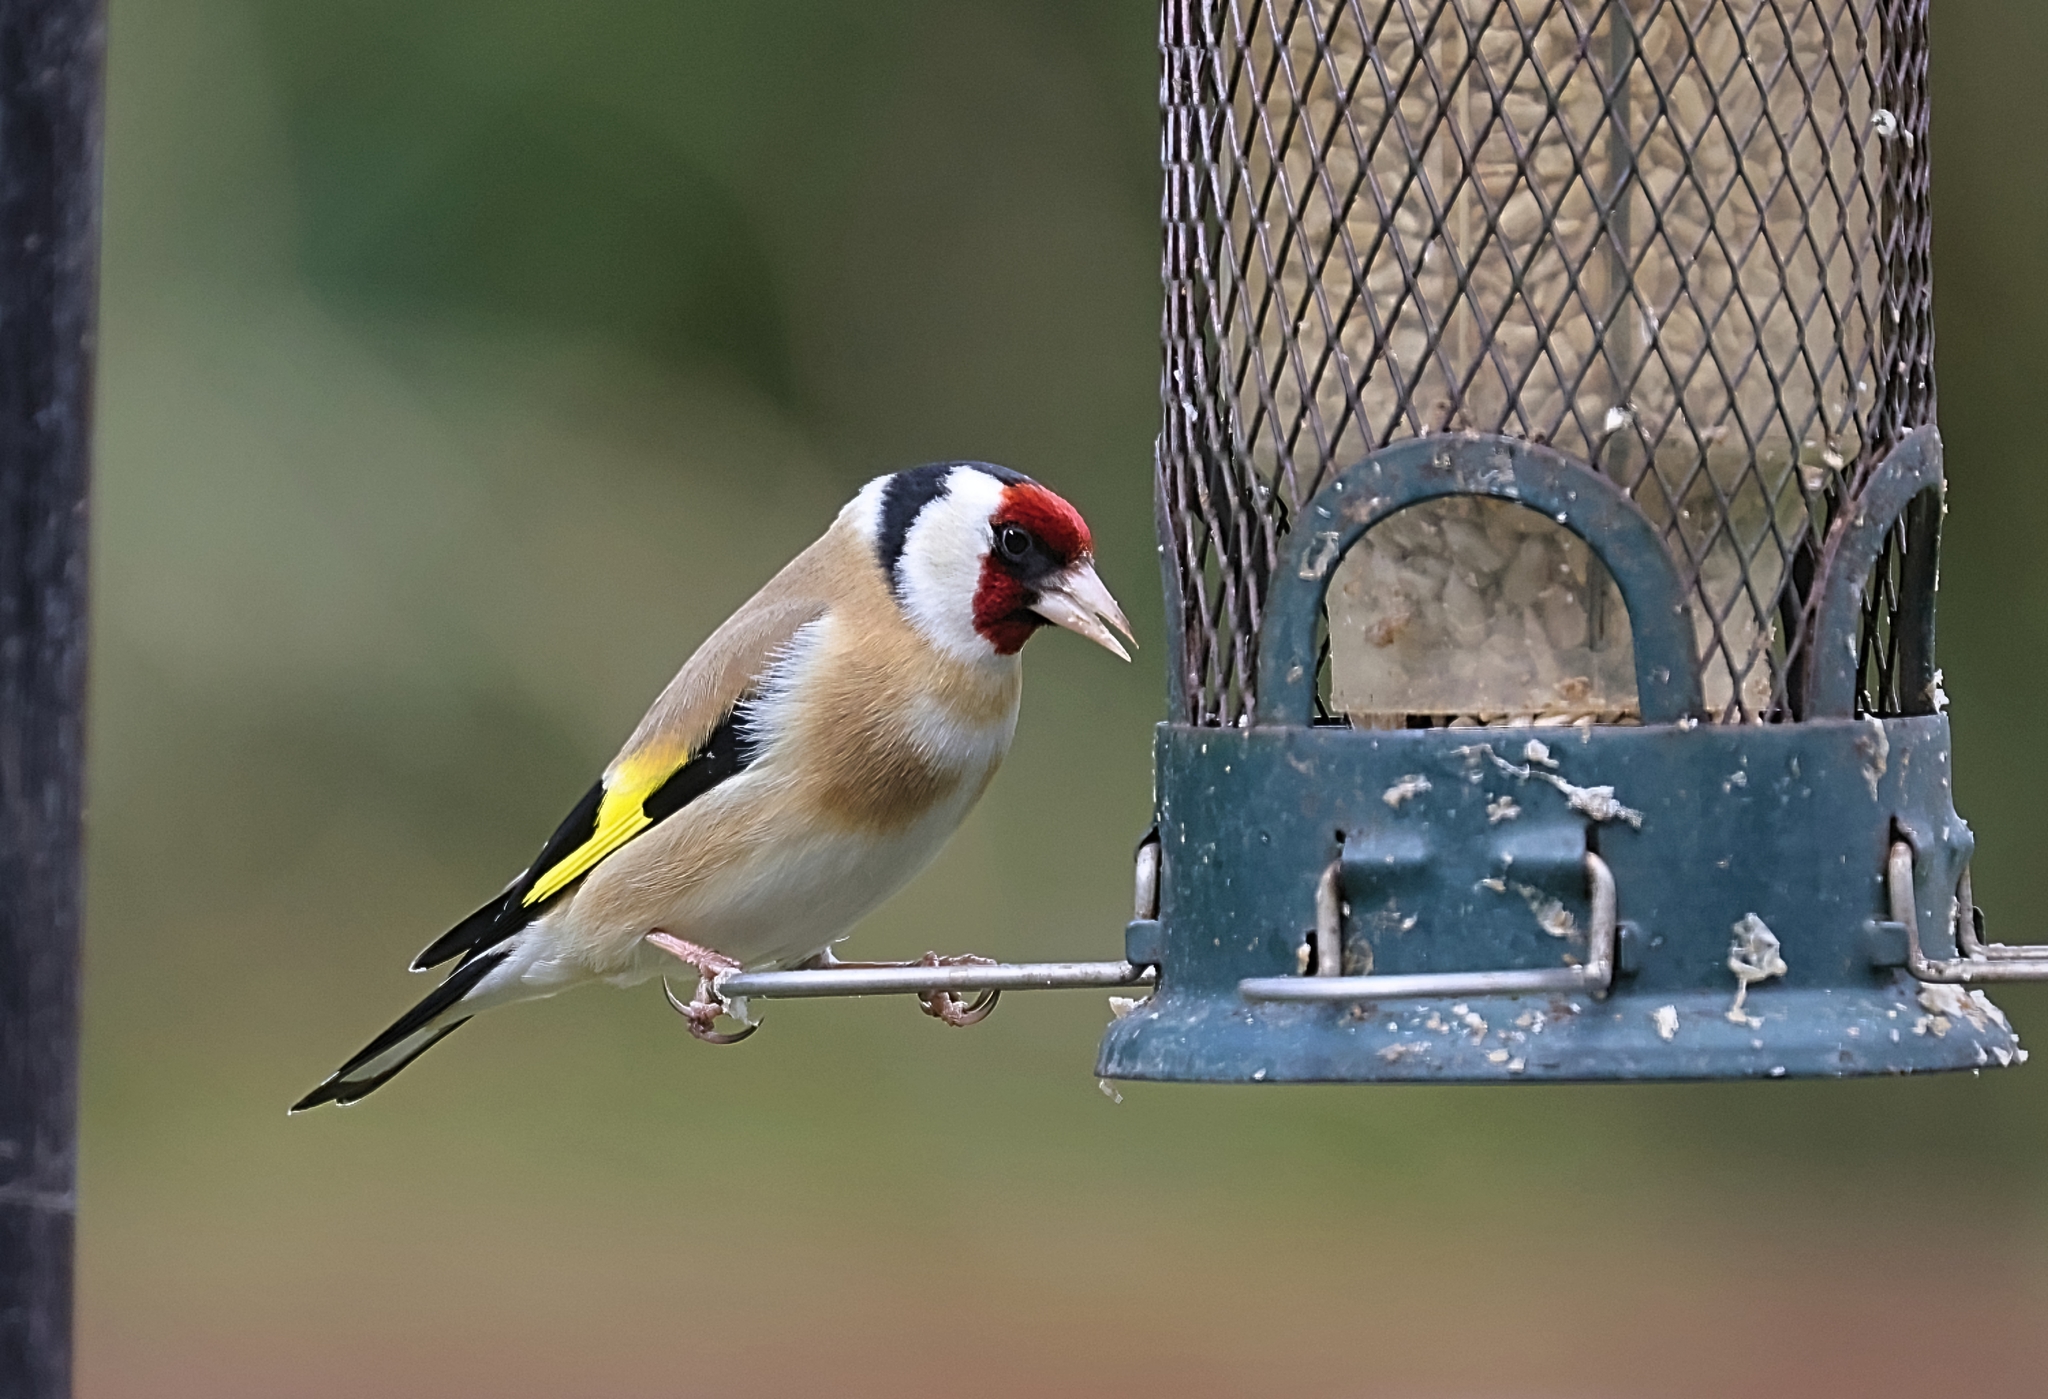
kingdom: Animalia
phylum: Chordata
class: Aves
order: Passeriformes
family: Fringillidae
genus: Carduelis
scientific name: Carduelis carduelis
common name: European goldfinch
